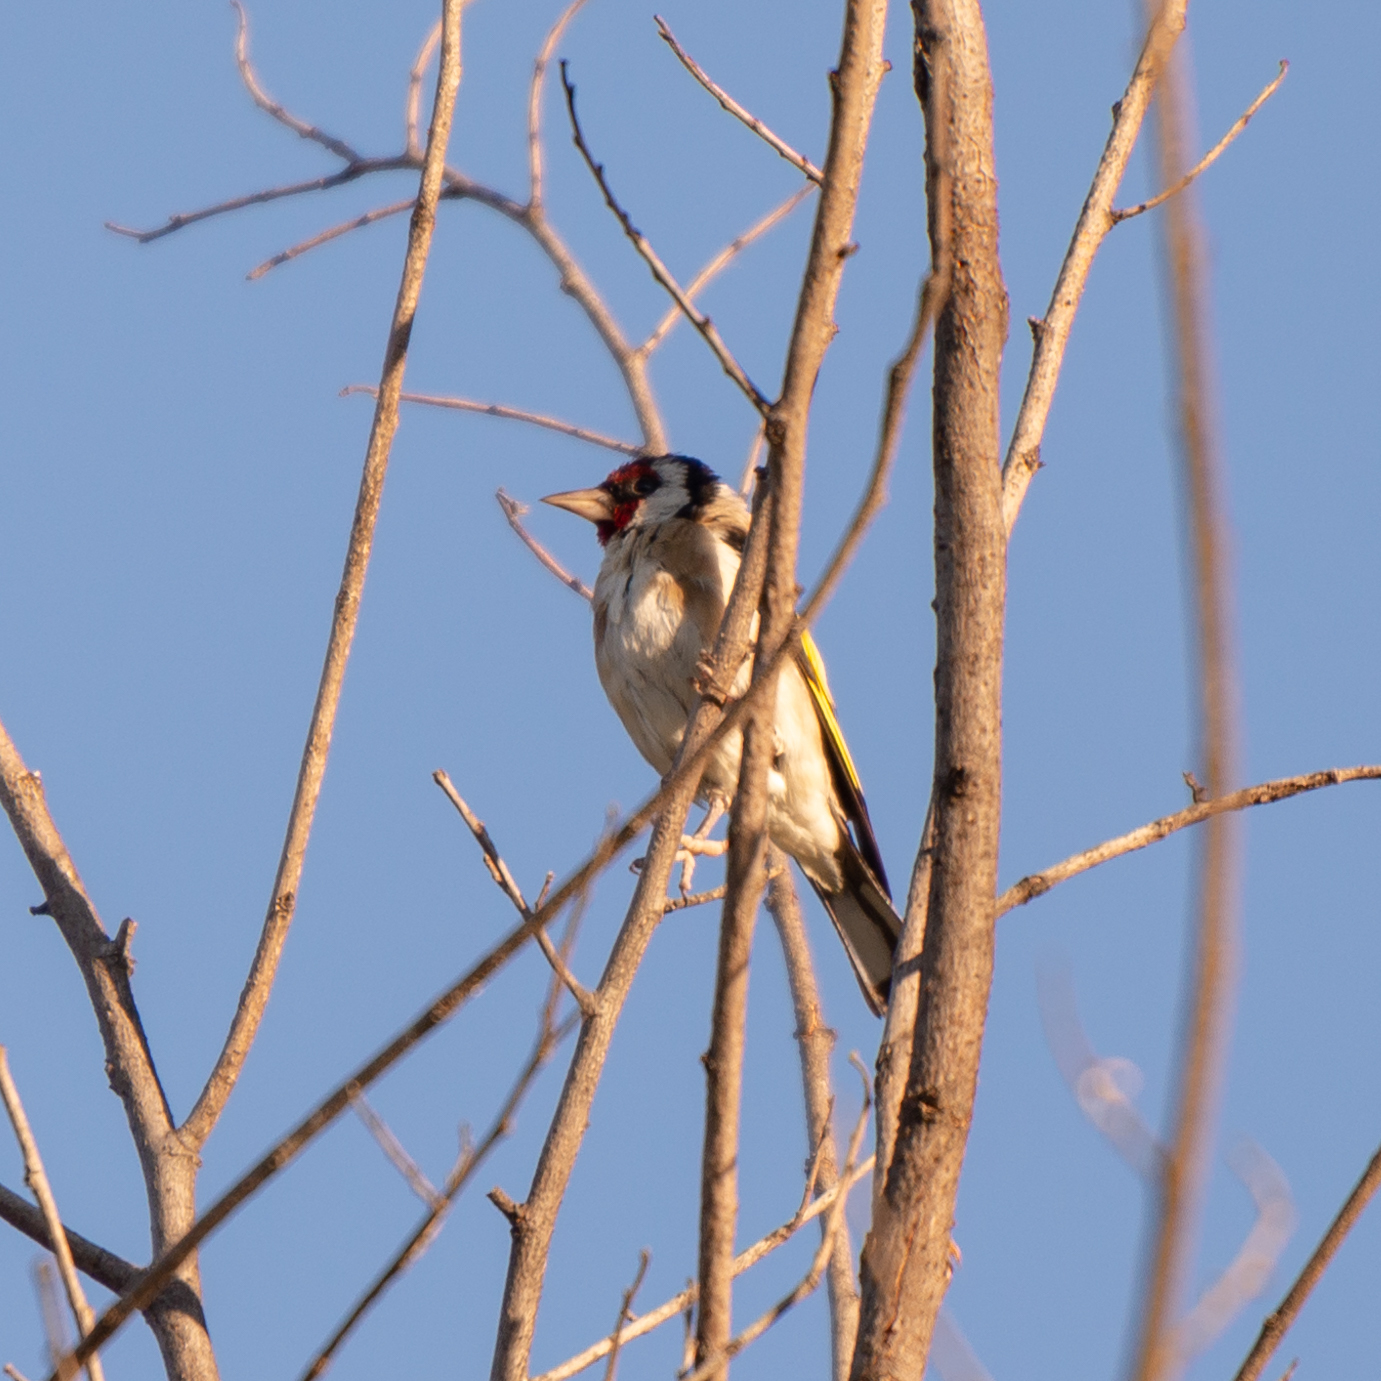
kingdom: Animalia
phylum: Chordata
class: Aves
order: Passeriformes
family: Fringillidae
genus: Carduelis
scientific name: Carduelis carduelis
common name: European goldfinch
